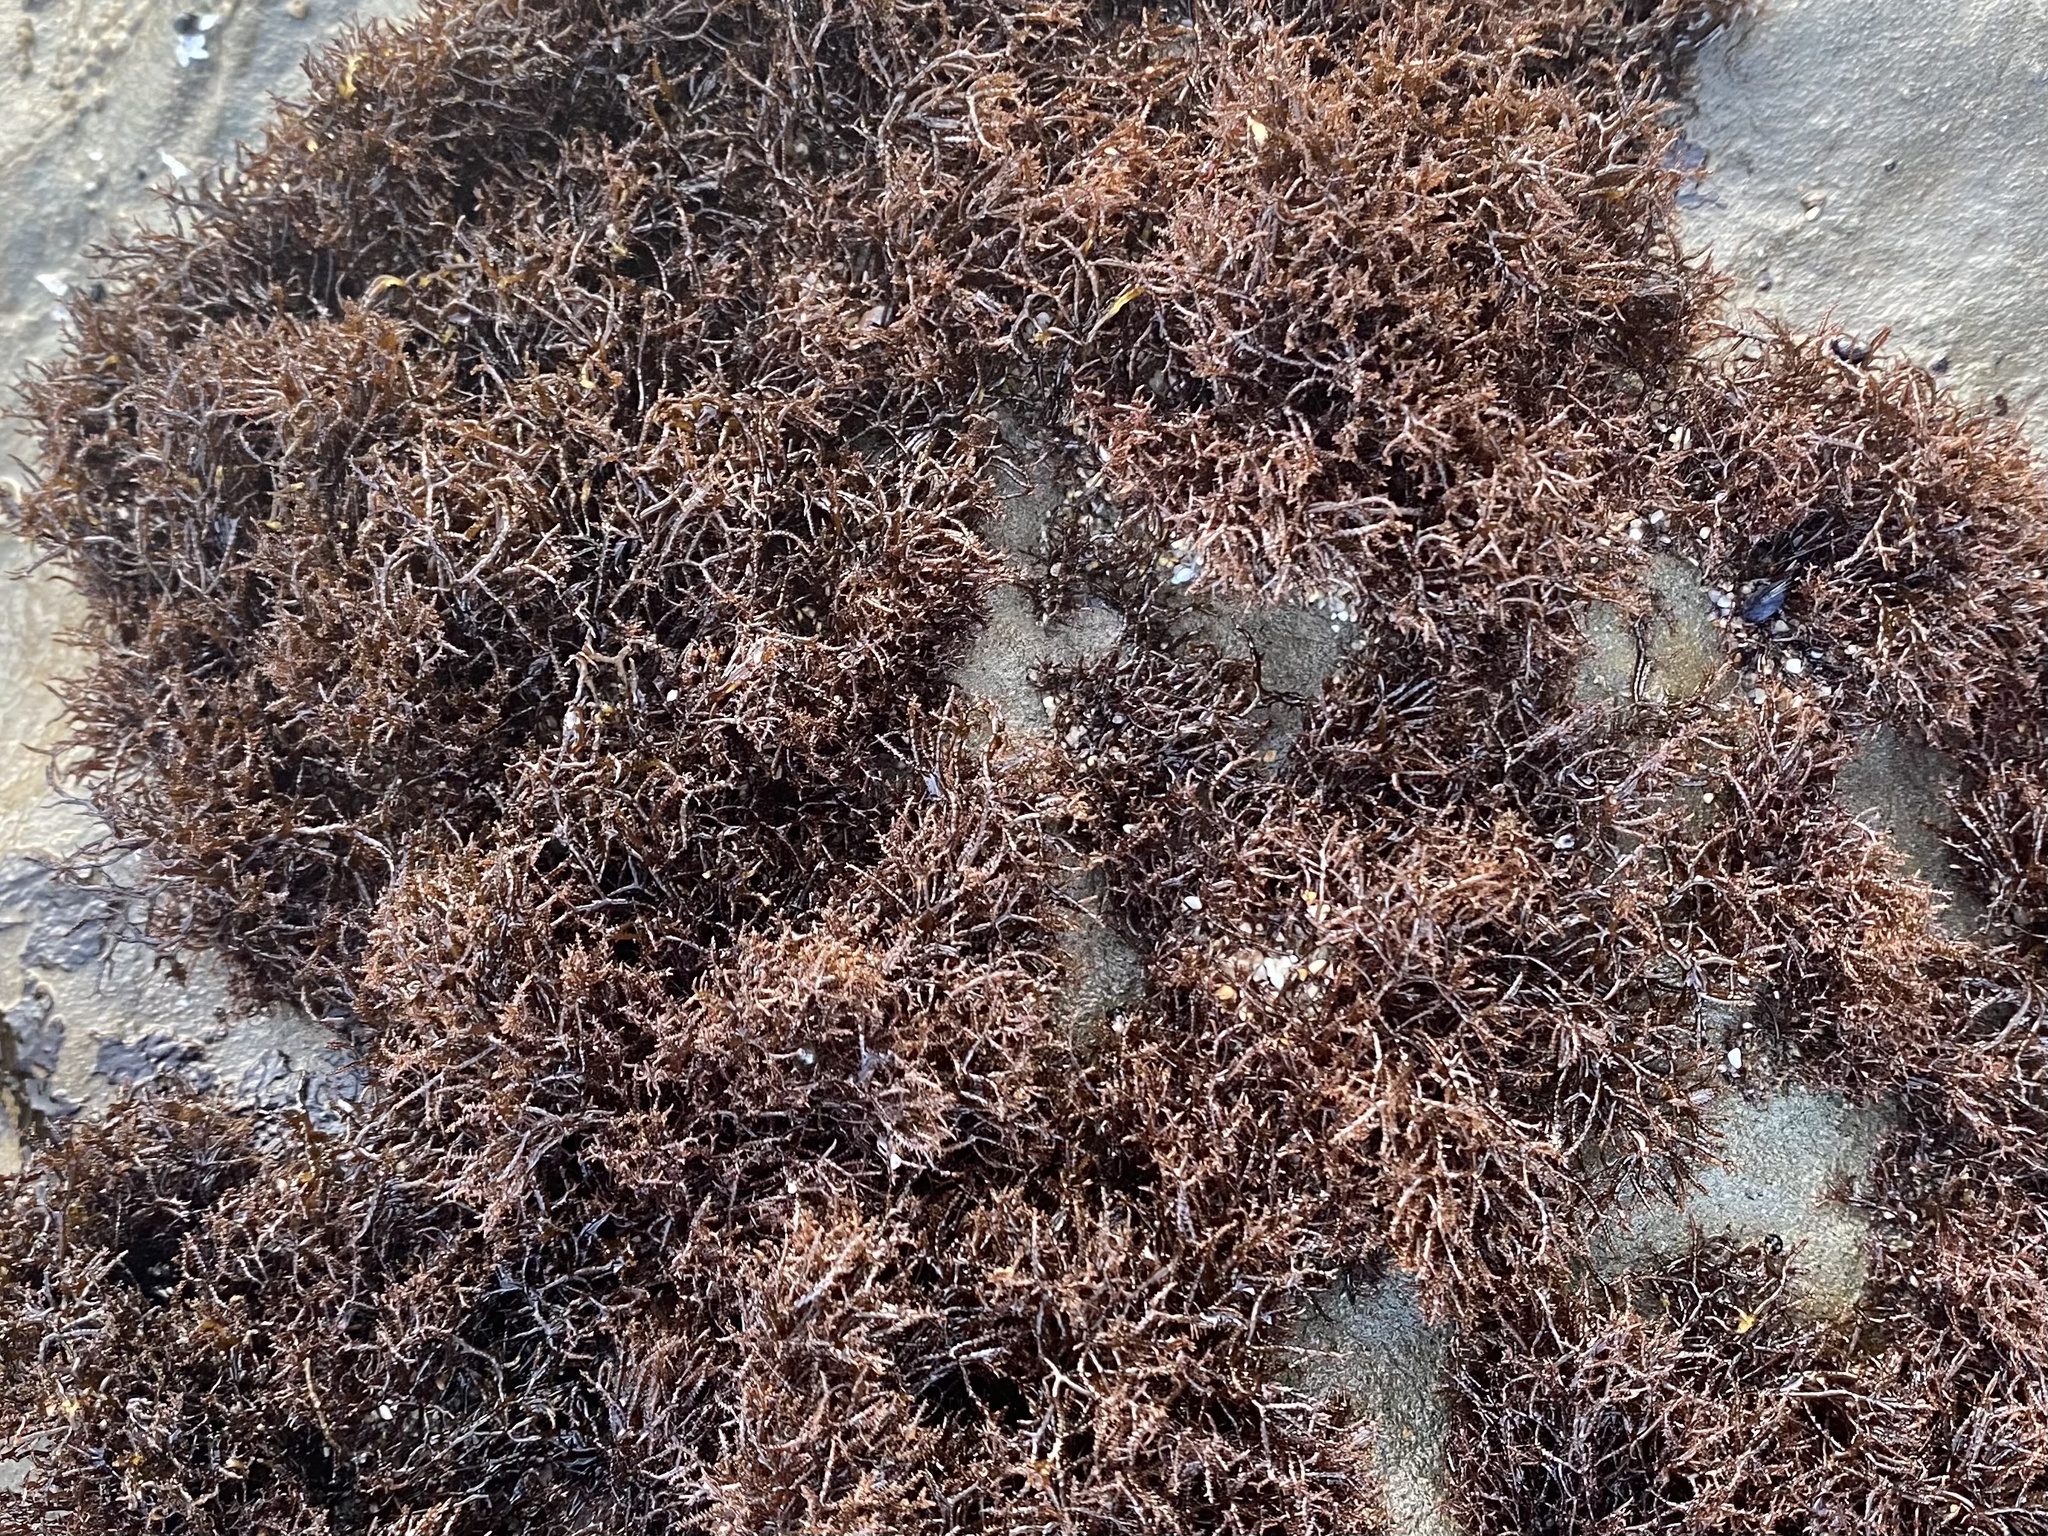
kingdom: Plantae
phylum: Rhodophyta
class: Florideophyceae
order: Gigartinales
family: Endocladiaceae
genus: Endocladia
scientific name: Endocladia muricata
